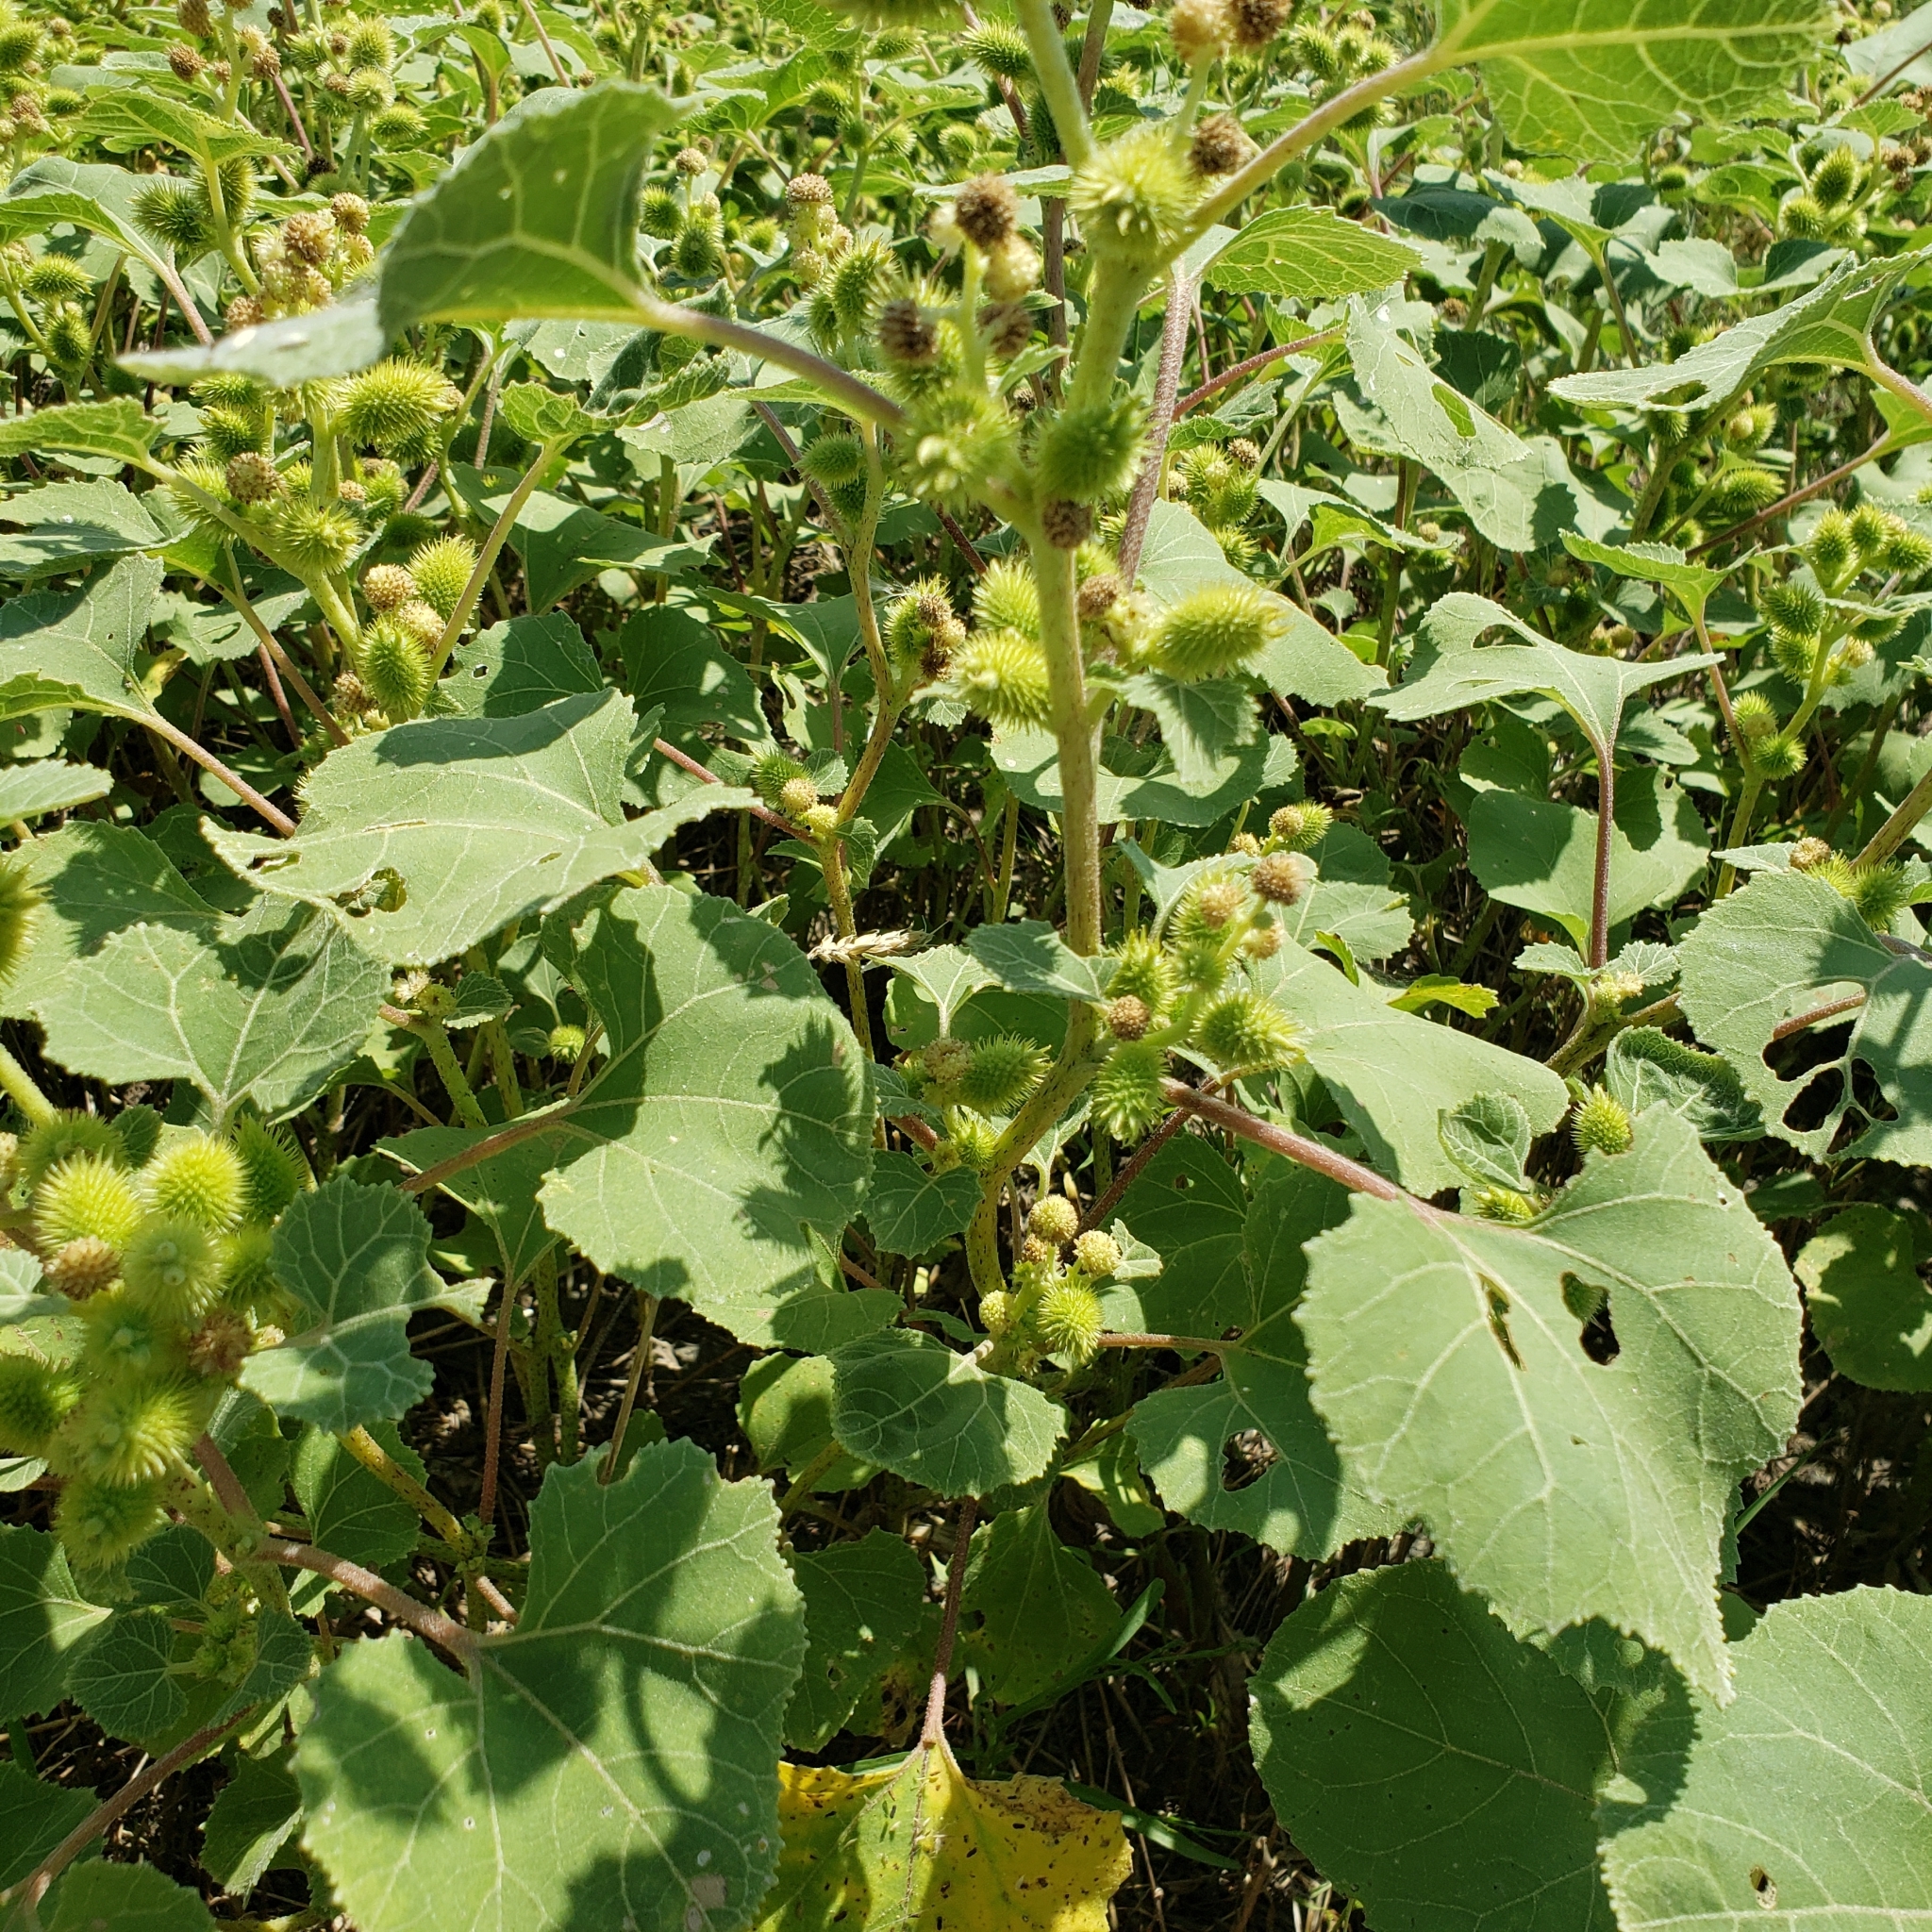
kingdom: Plantae
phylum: Tracheophyta
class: Magnoliopsida
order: Asterales
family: Asteraceae
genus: Xanthium
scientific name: Xanthium strumarium
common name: Rough cocklebur
